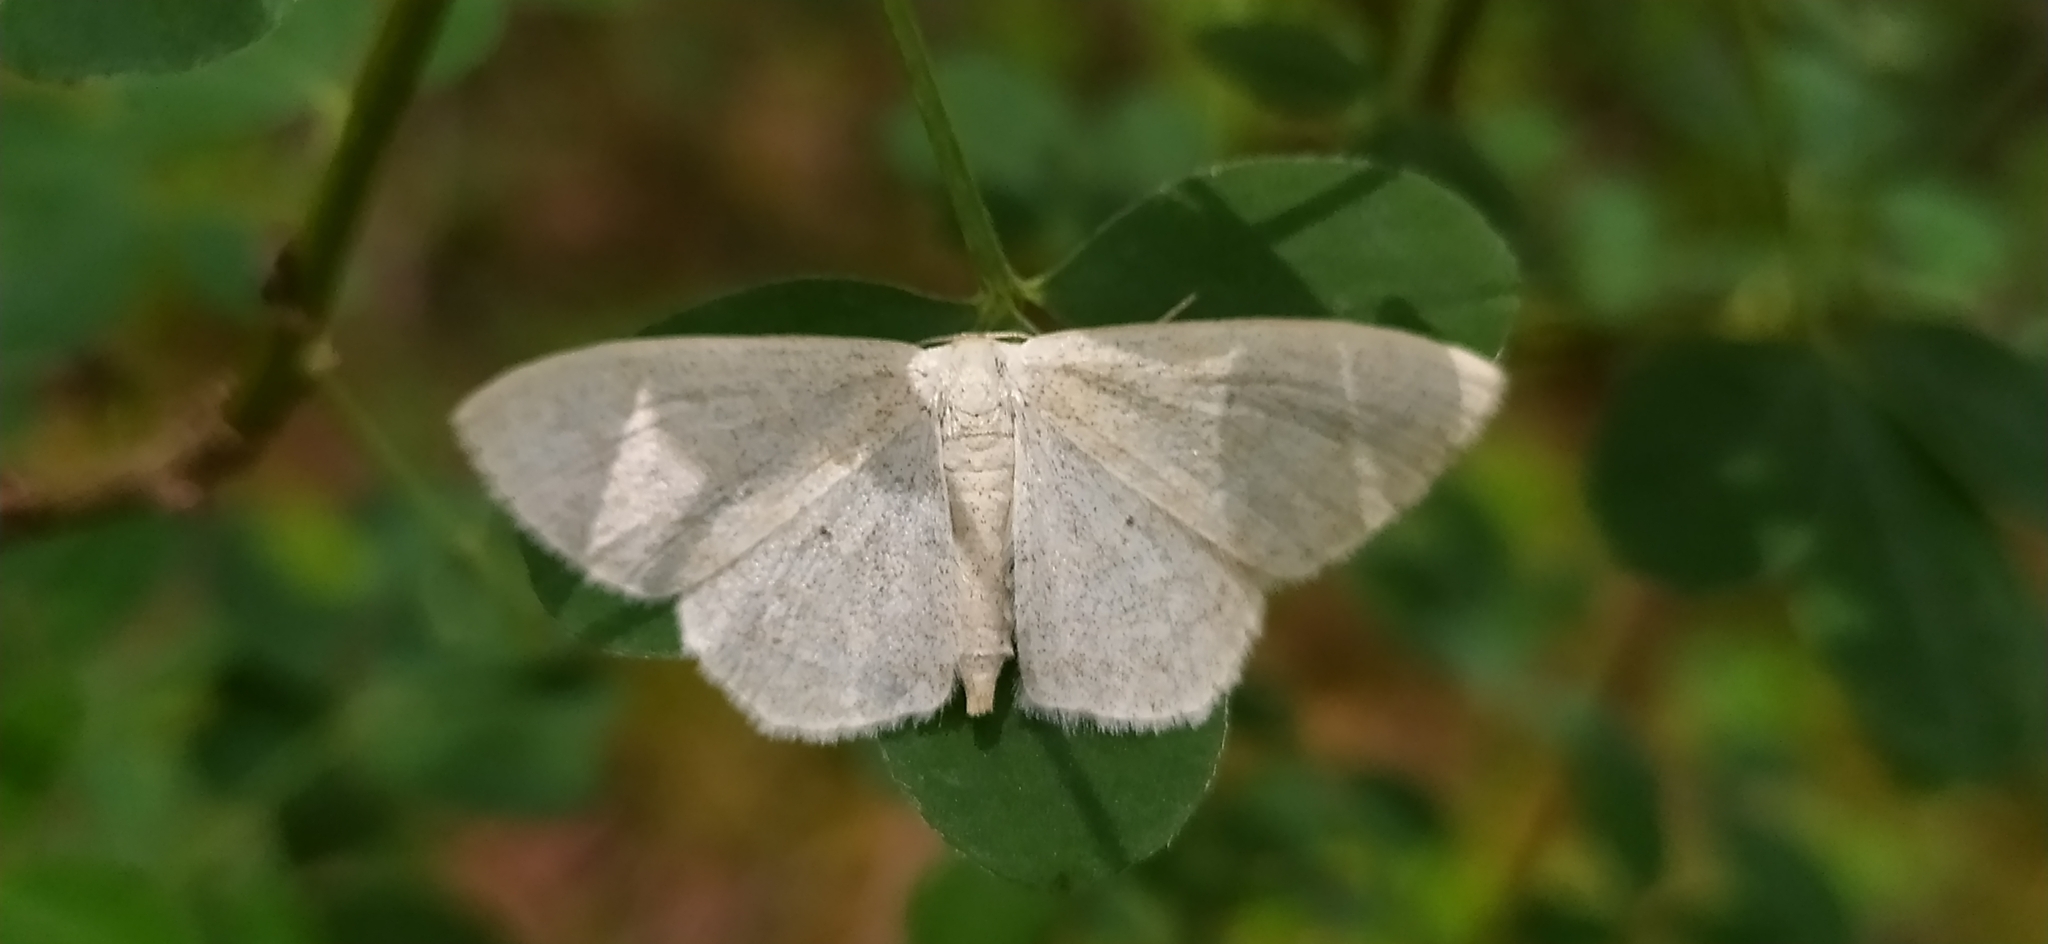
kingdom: Animalia
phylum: Arthropoda
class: Insecta
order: Lepidoptera
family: Geometridae
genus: Scopula
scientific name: Scopula floslactata
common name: Cream wave
